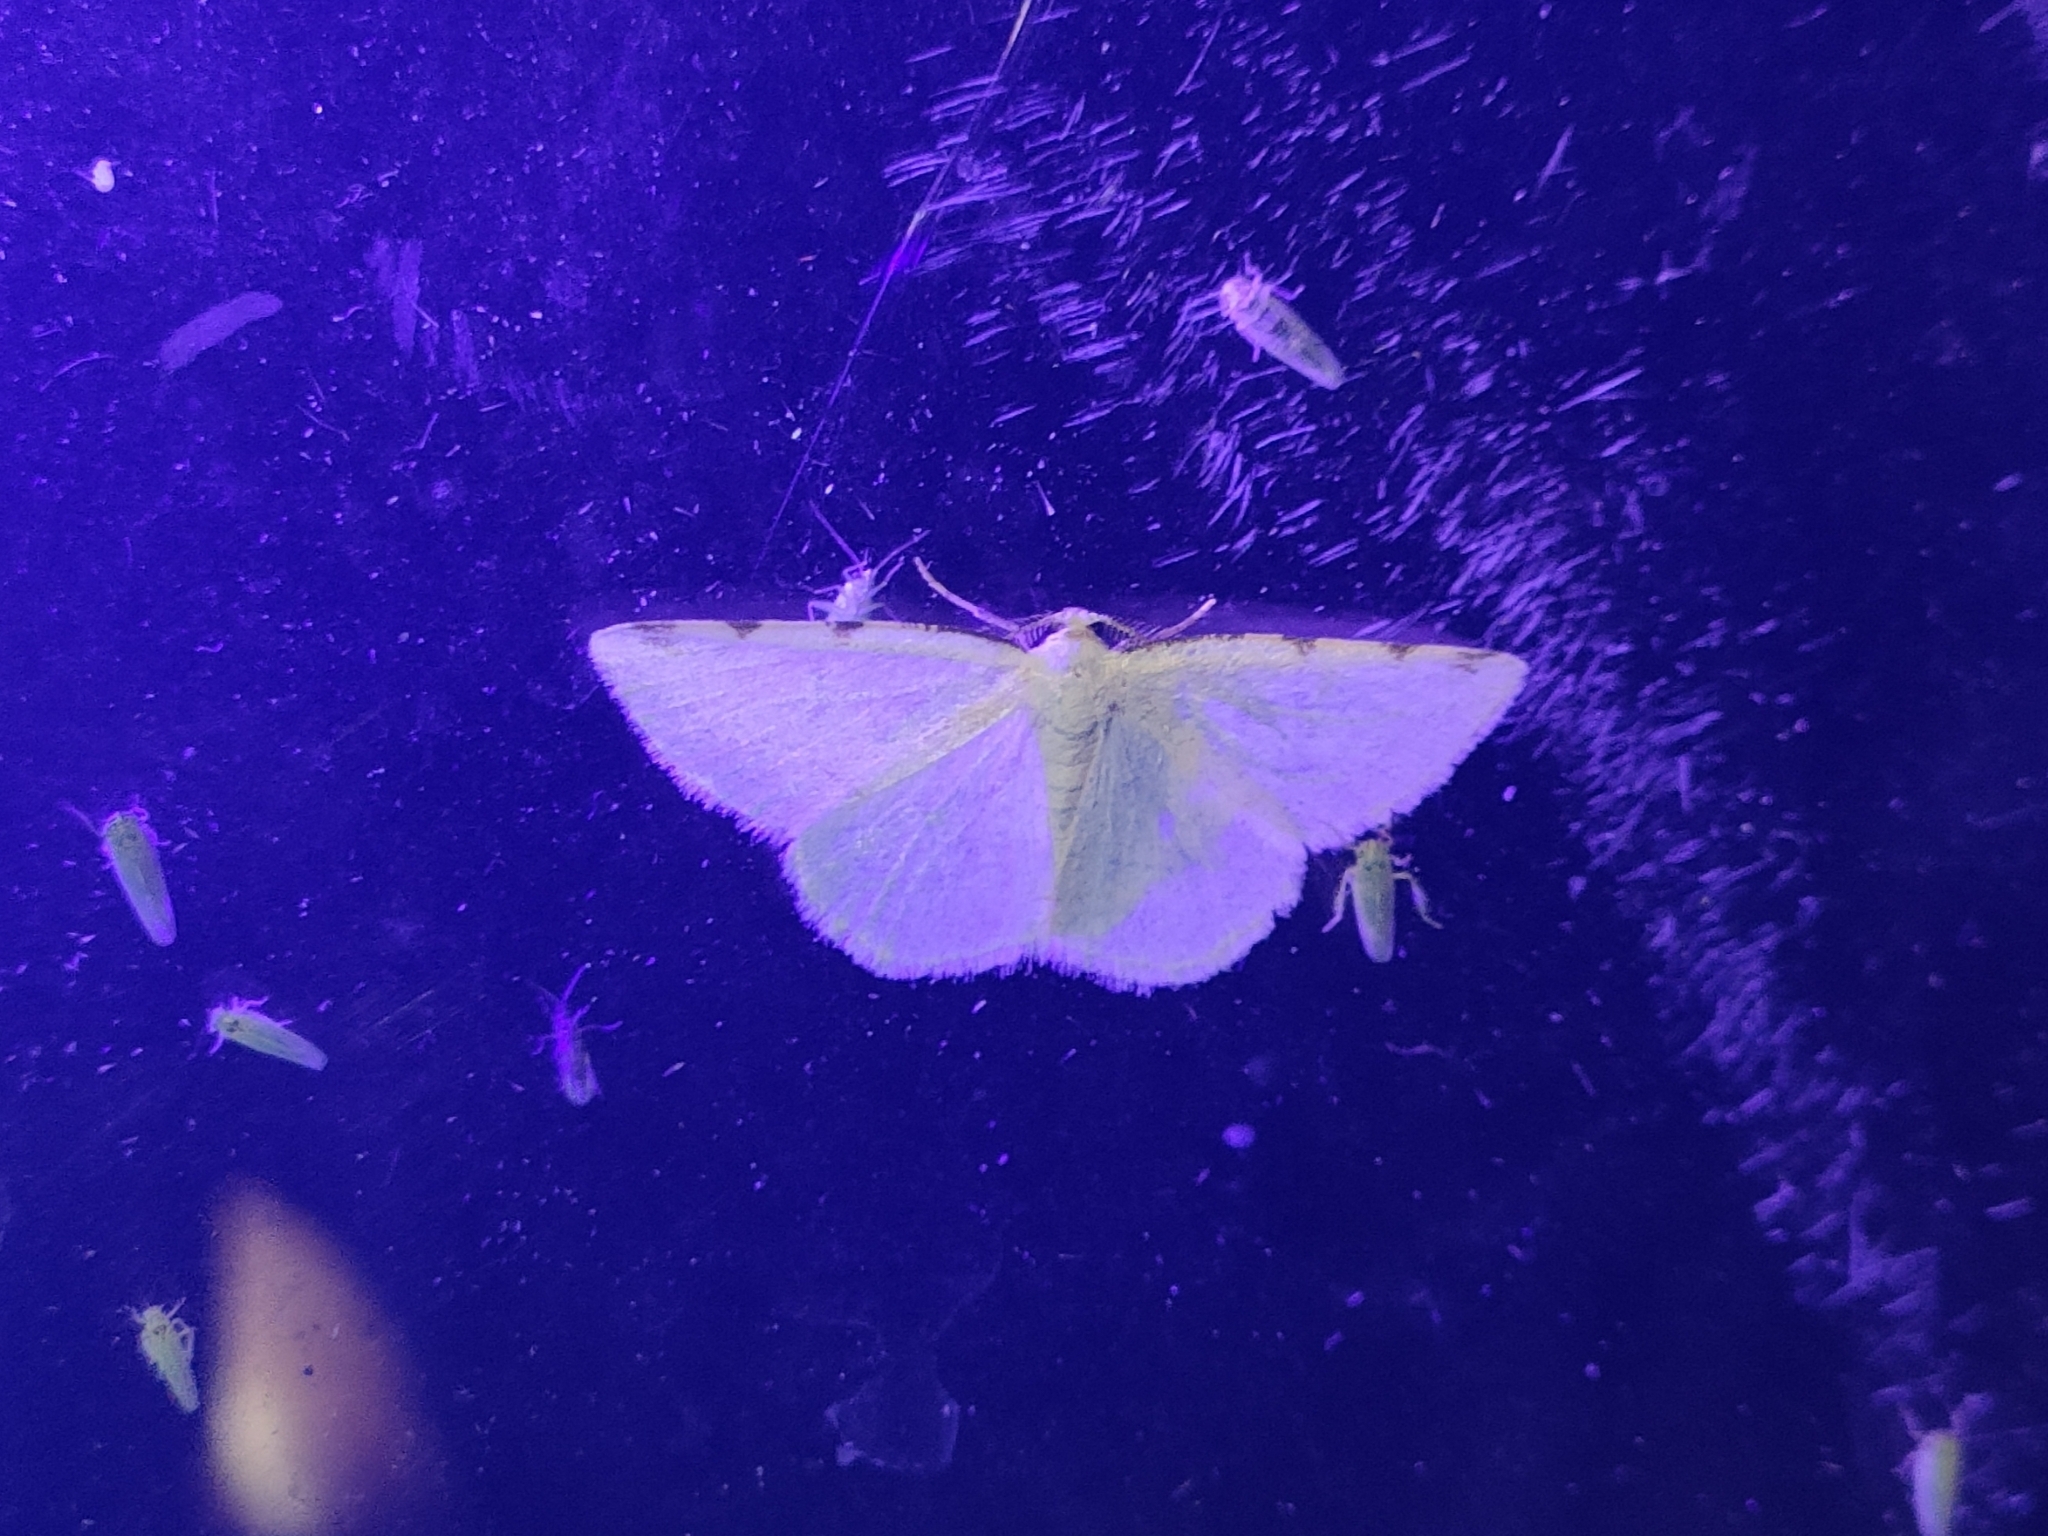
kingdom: Animalia
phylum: Arthropoda
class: Insecta
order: Lepidoptera
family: Geometridae
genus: Stegania
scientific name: Stegania trimaculata
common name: Dorset cream wave
